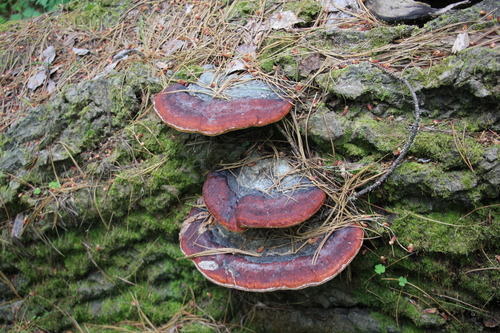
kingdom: Fungi
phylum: Basidiomycota
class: Agaricomycetes
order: Polyporales
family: Fomitopsidaceae
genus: Fomitopsis
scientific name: Fomitopsis pinicola
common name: Red-belted bracket
